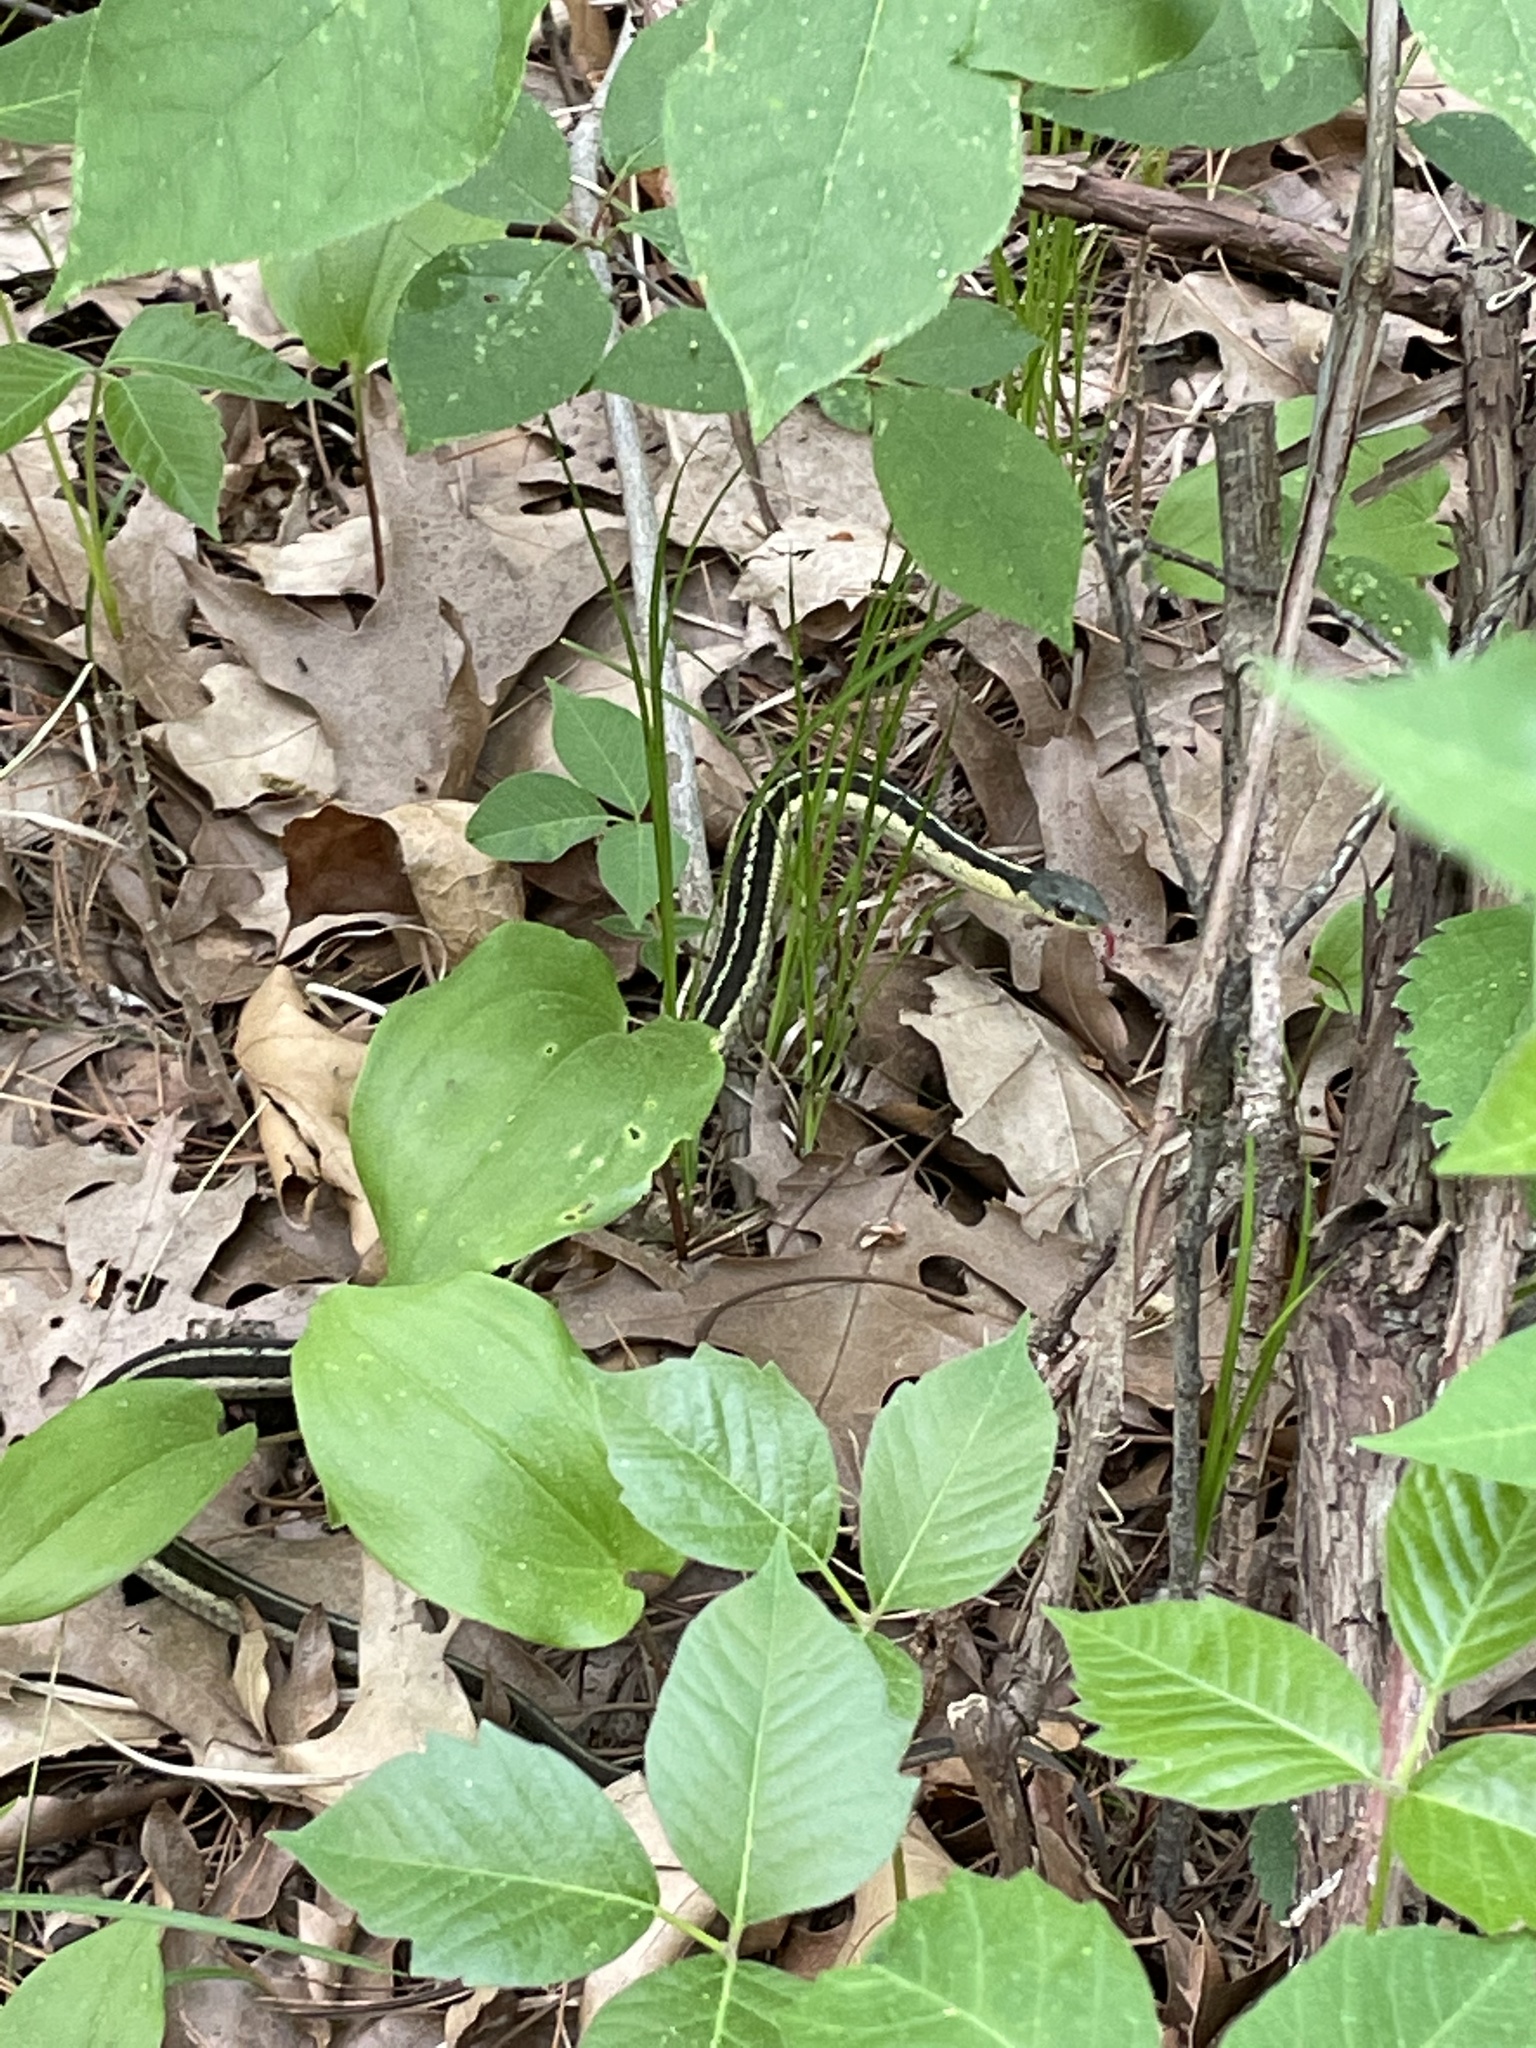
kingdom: Animalia
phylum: Chordata
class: Squamata
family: Colubridae
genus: Thamnophis
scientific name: Thamnophis sirtalis
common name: Common garter snake
